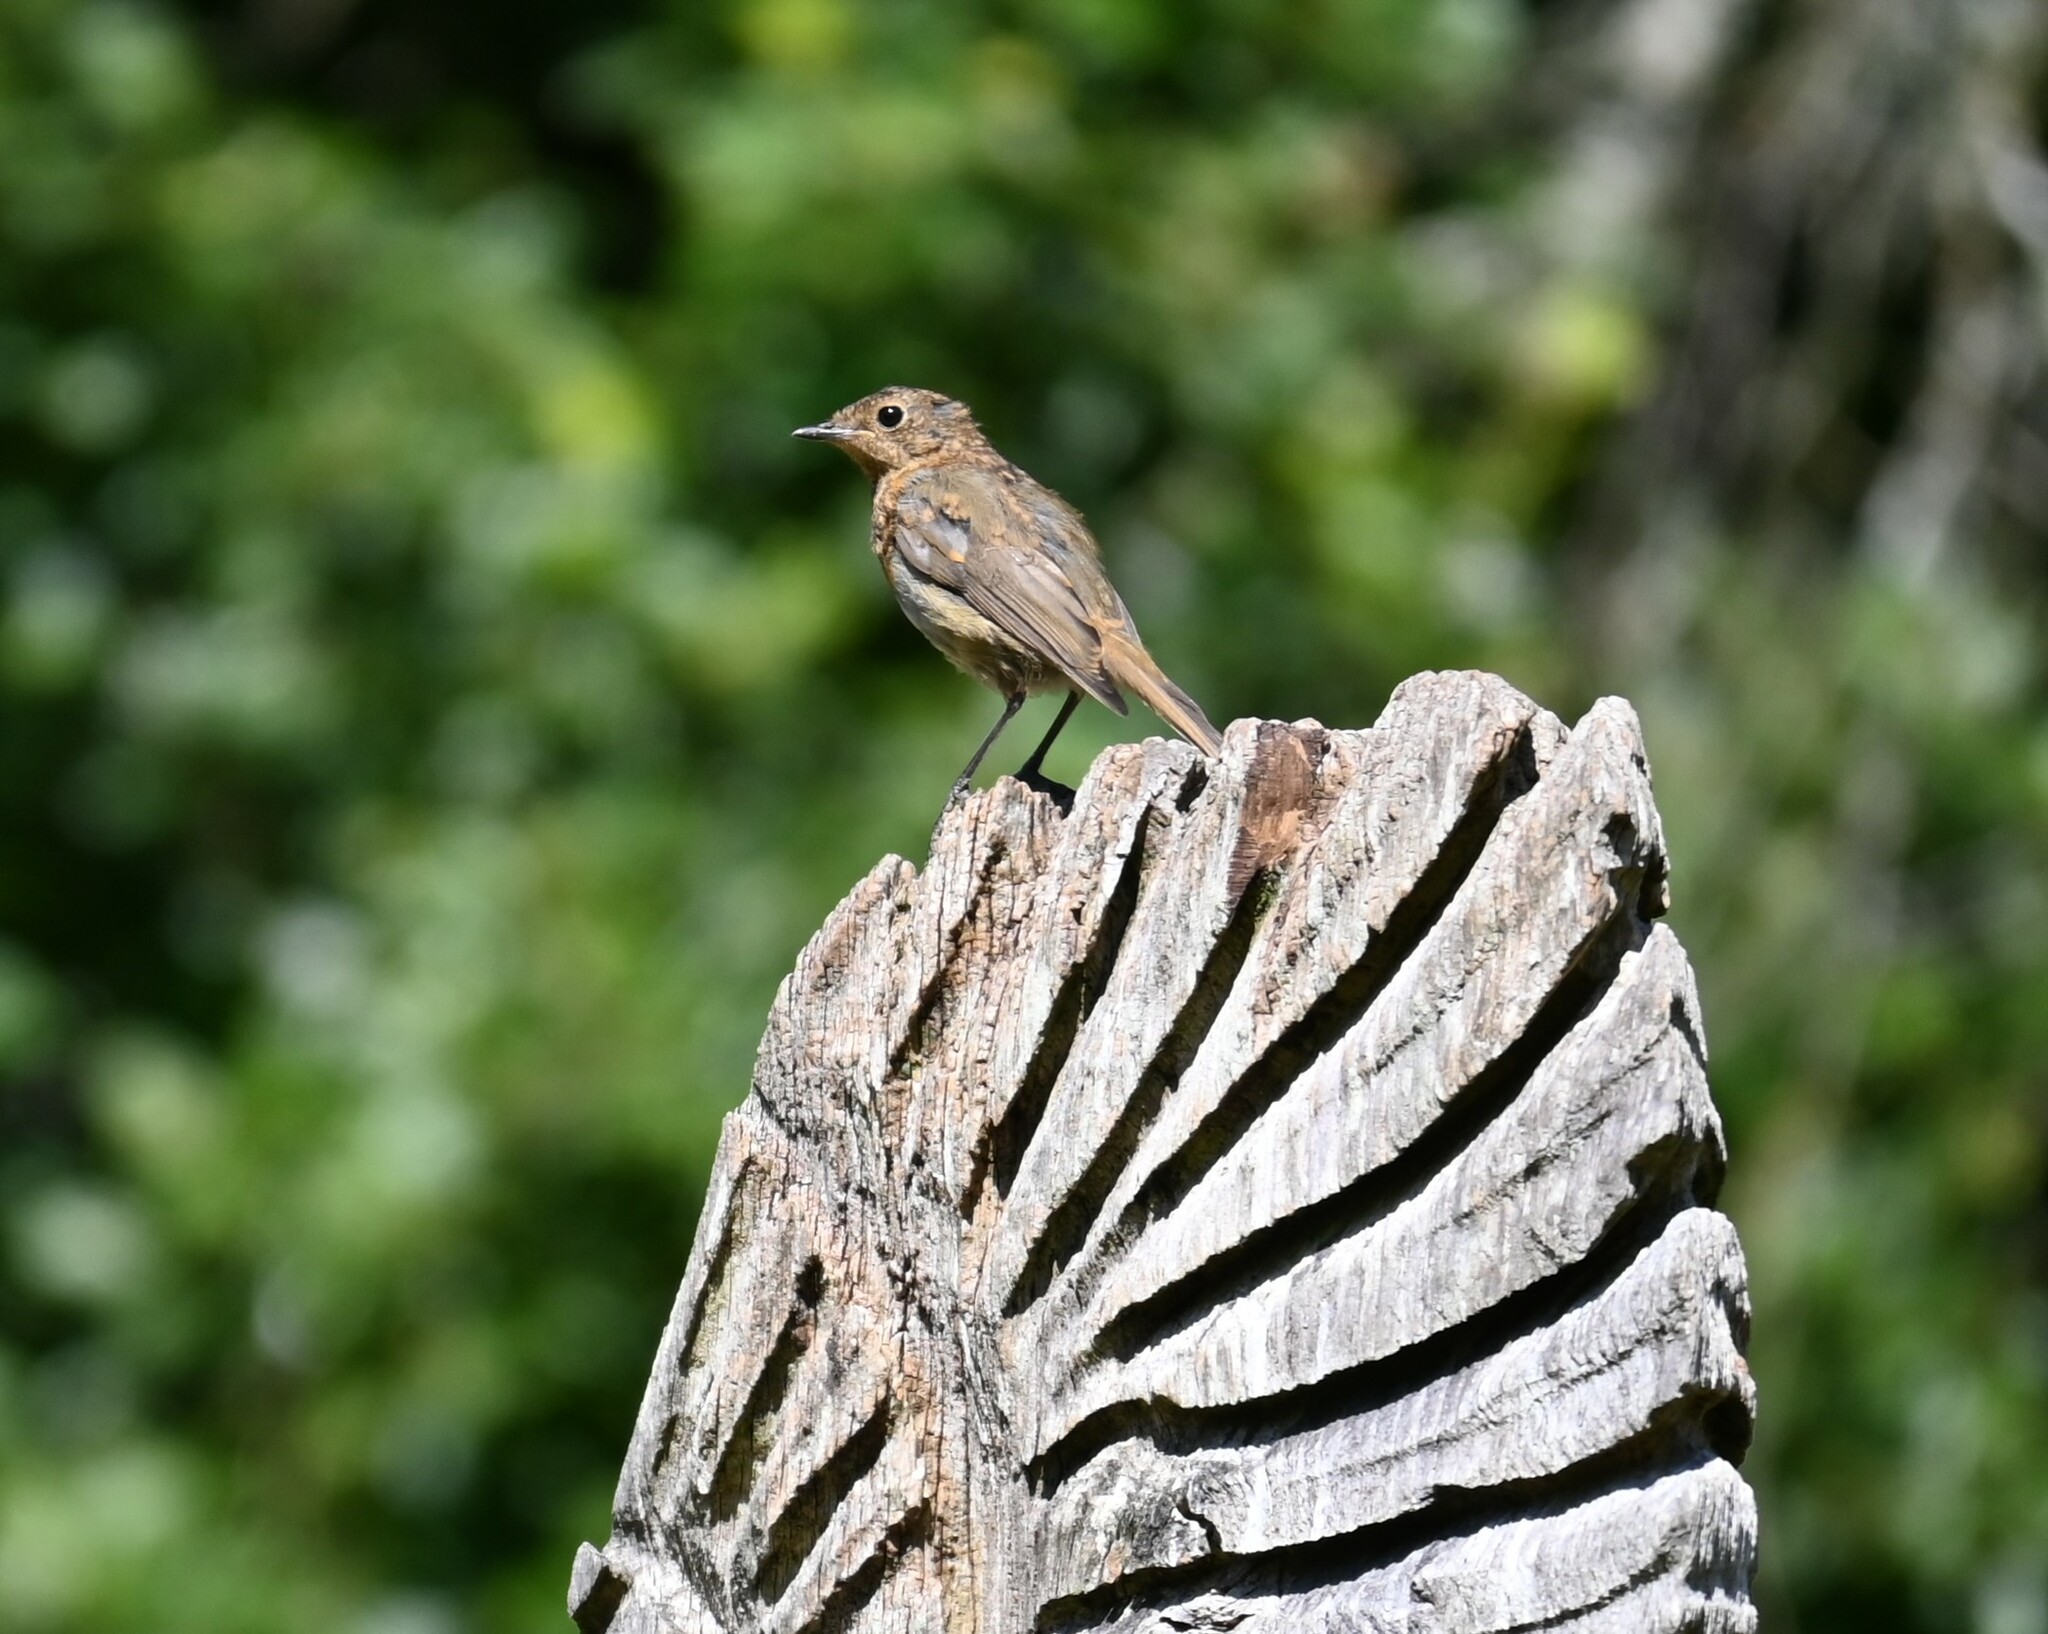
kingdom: Animalia
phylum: Chordata
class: Aves
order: Passeriformes
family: Muscicapidae
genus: Erithacus
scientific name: Erithacus rubecula
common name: European robin
